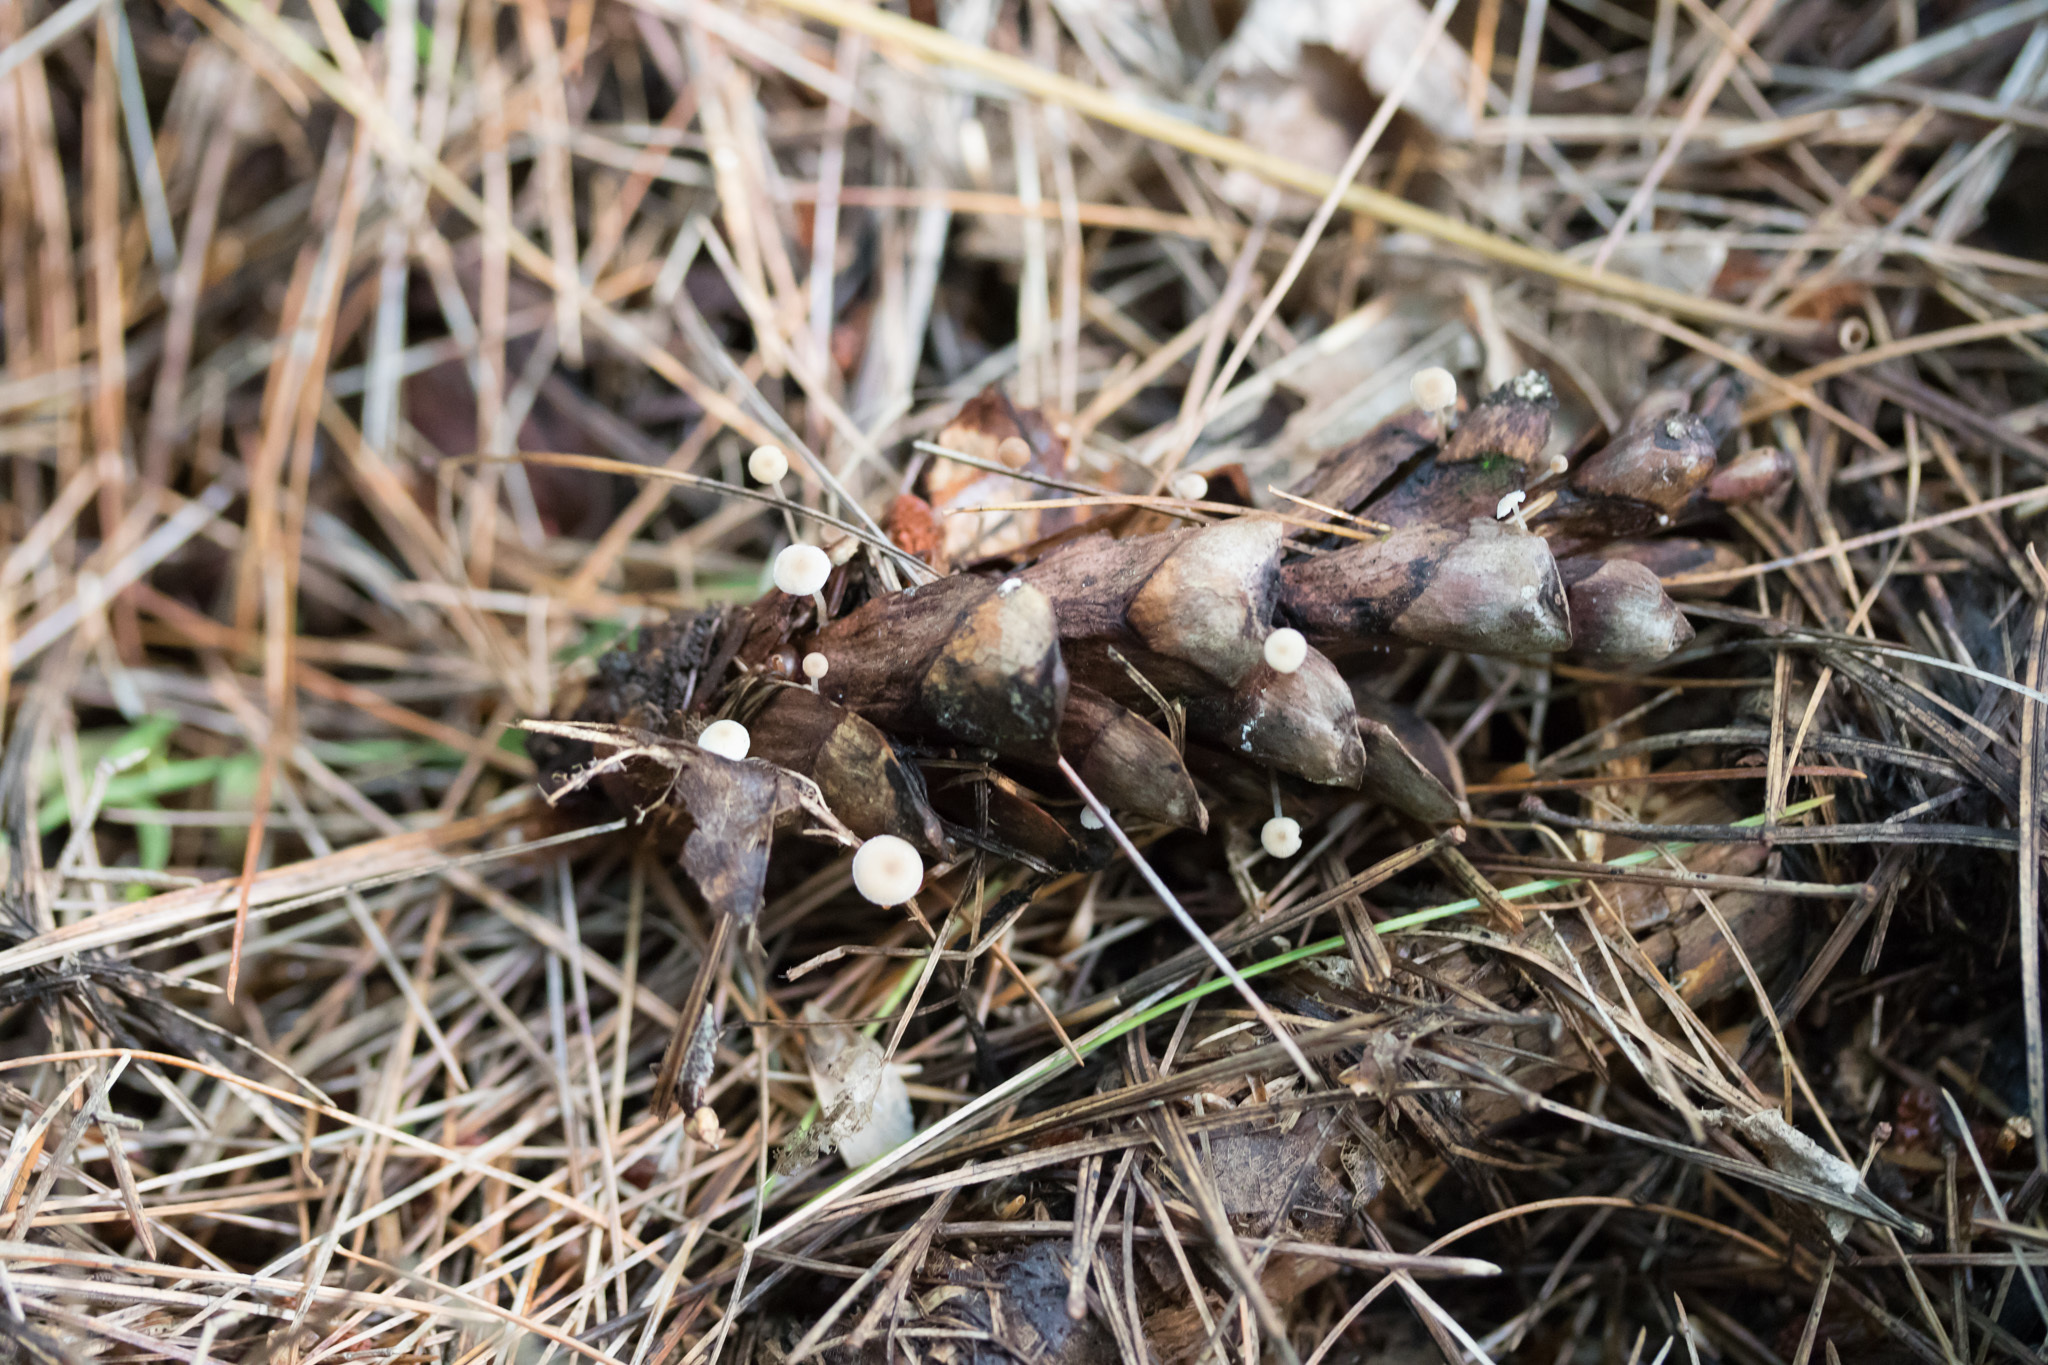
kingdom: Fungi
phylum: Basidiomycota
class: Agaricomycetes
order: Agaricales
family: Marasmiaceae
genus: Baeospora
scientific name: Baeospora myosura
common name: Conifercone cap
